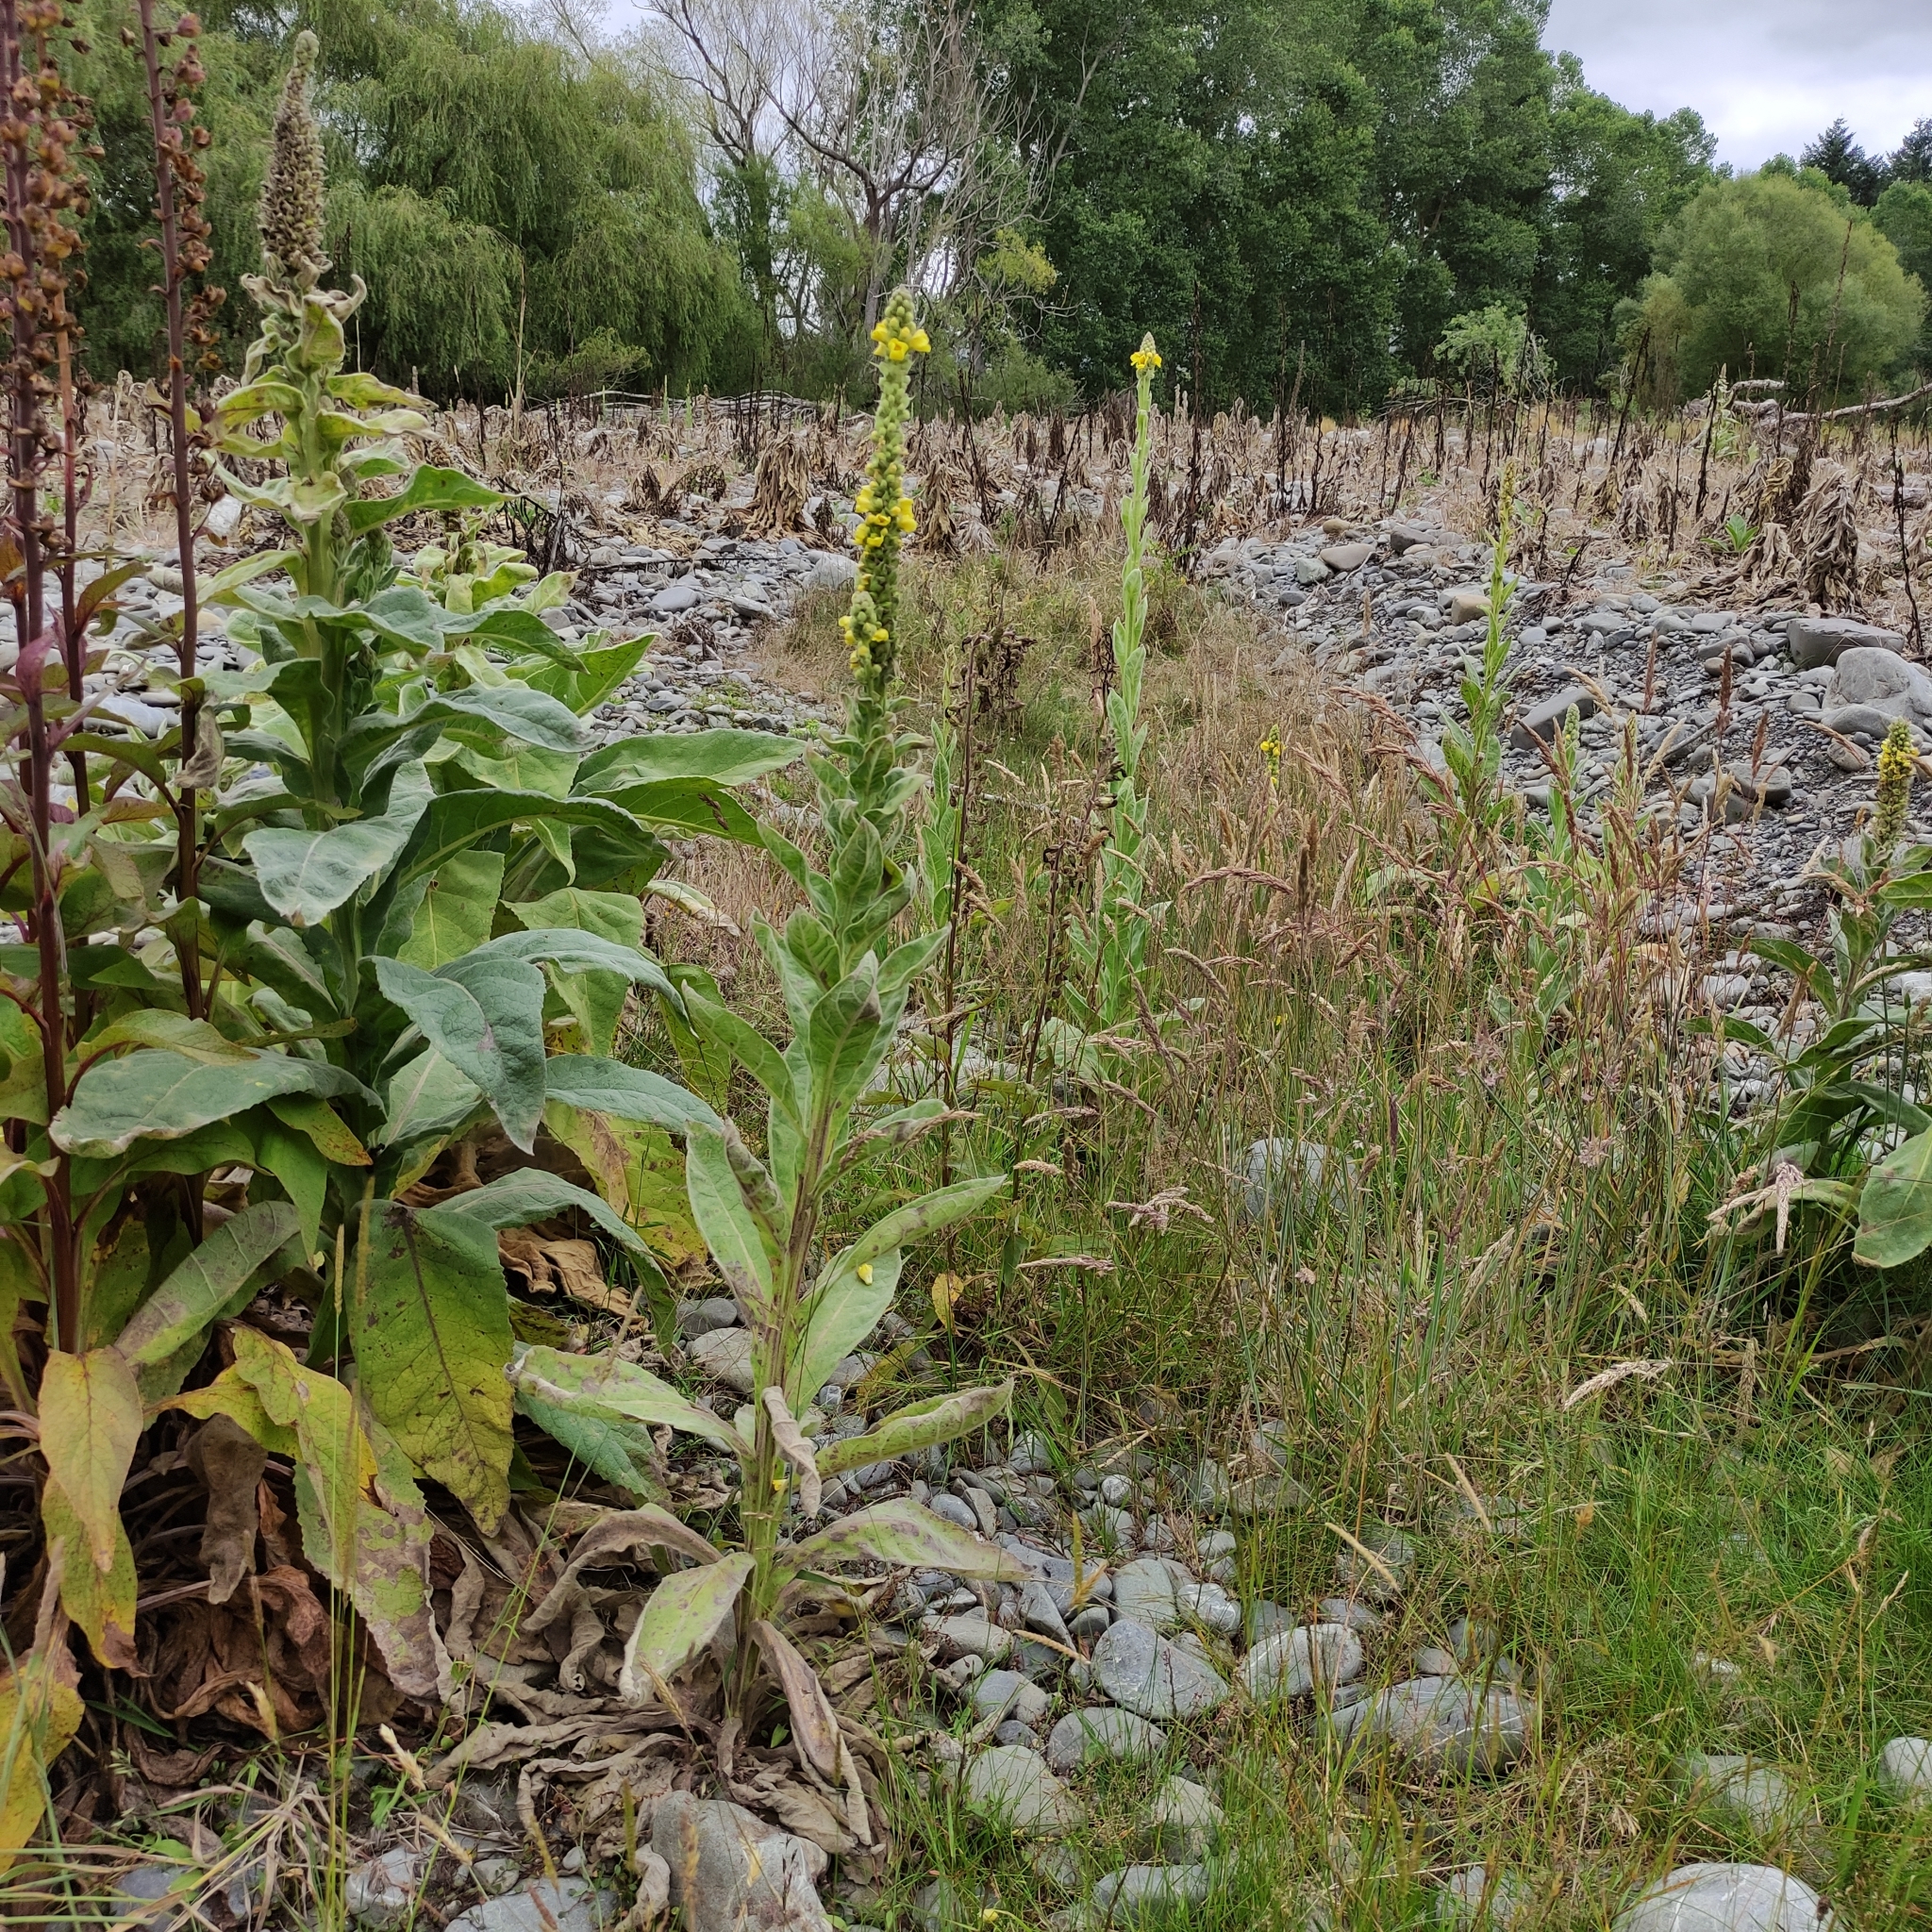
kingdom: Plantae
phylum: Tracheophyta
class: Magnoliopsida
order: Lamiales
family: Scrophulariaceae
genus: Verbascum
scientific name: Verbascum thapsus
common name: Common mullein
